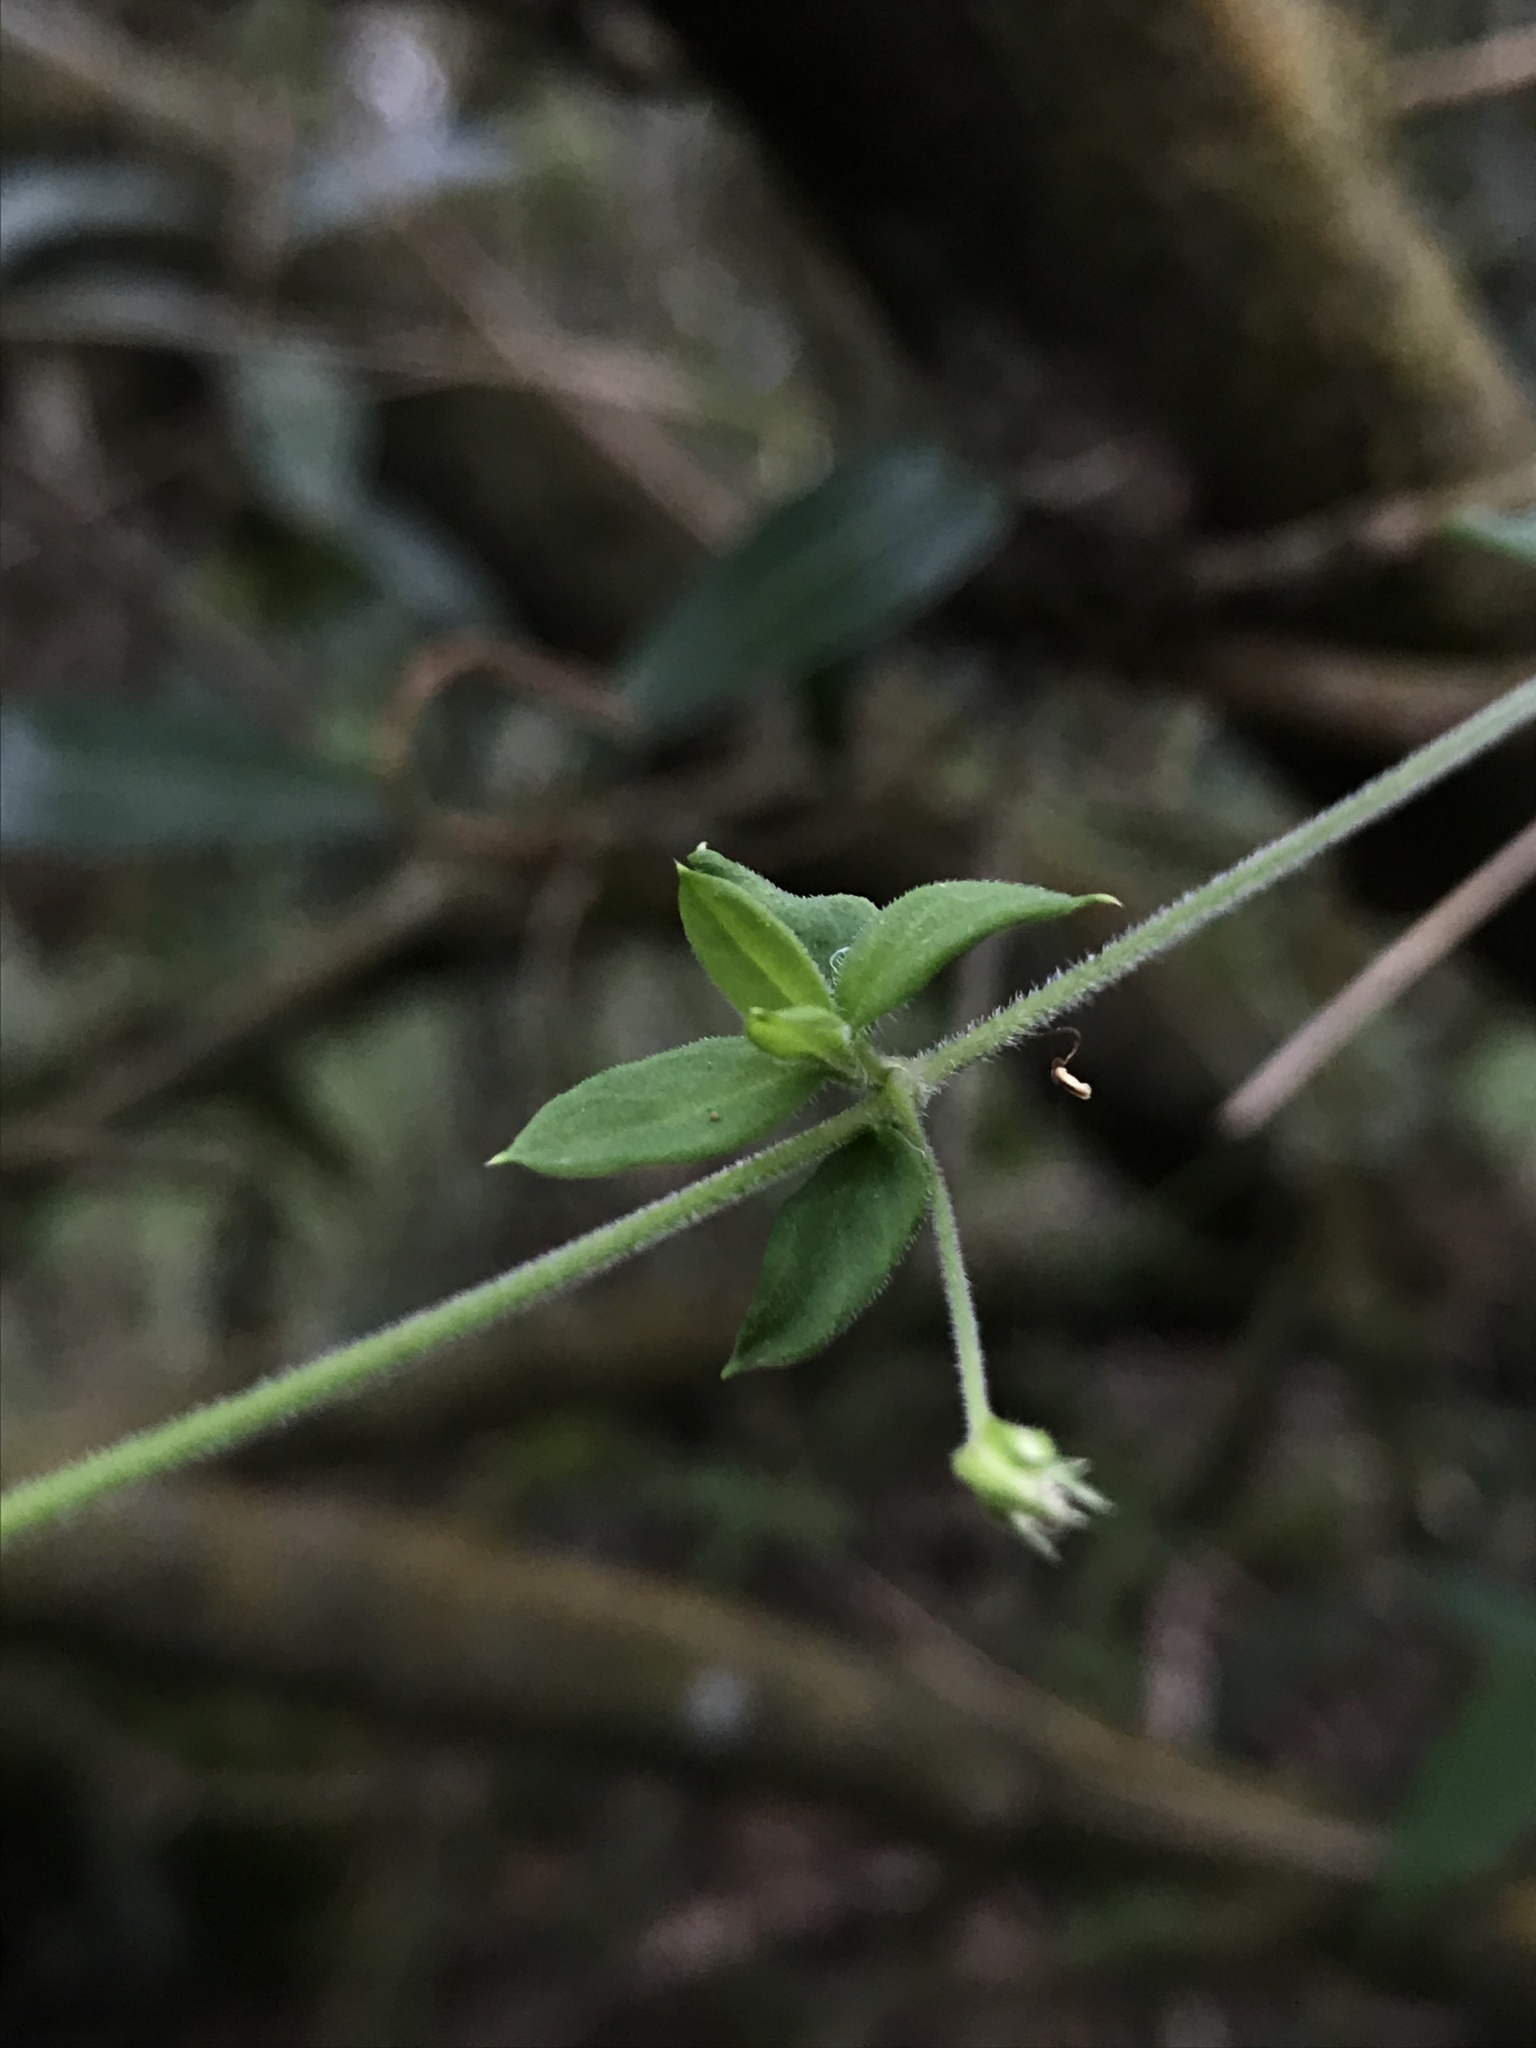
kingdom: Plantae
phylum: Tracheophyta
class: Magnoliopsida
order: Caryophyllales
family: Caryophyllaceae
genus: Arenaria
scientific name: Arenaria lanuginosa
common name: Spread sandwort
